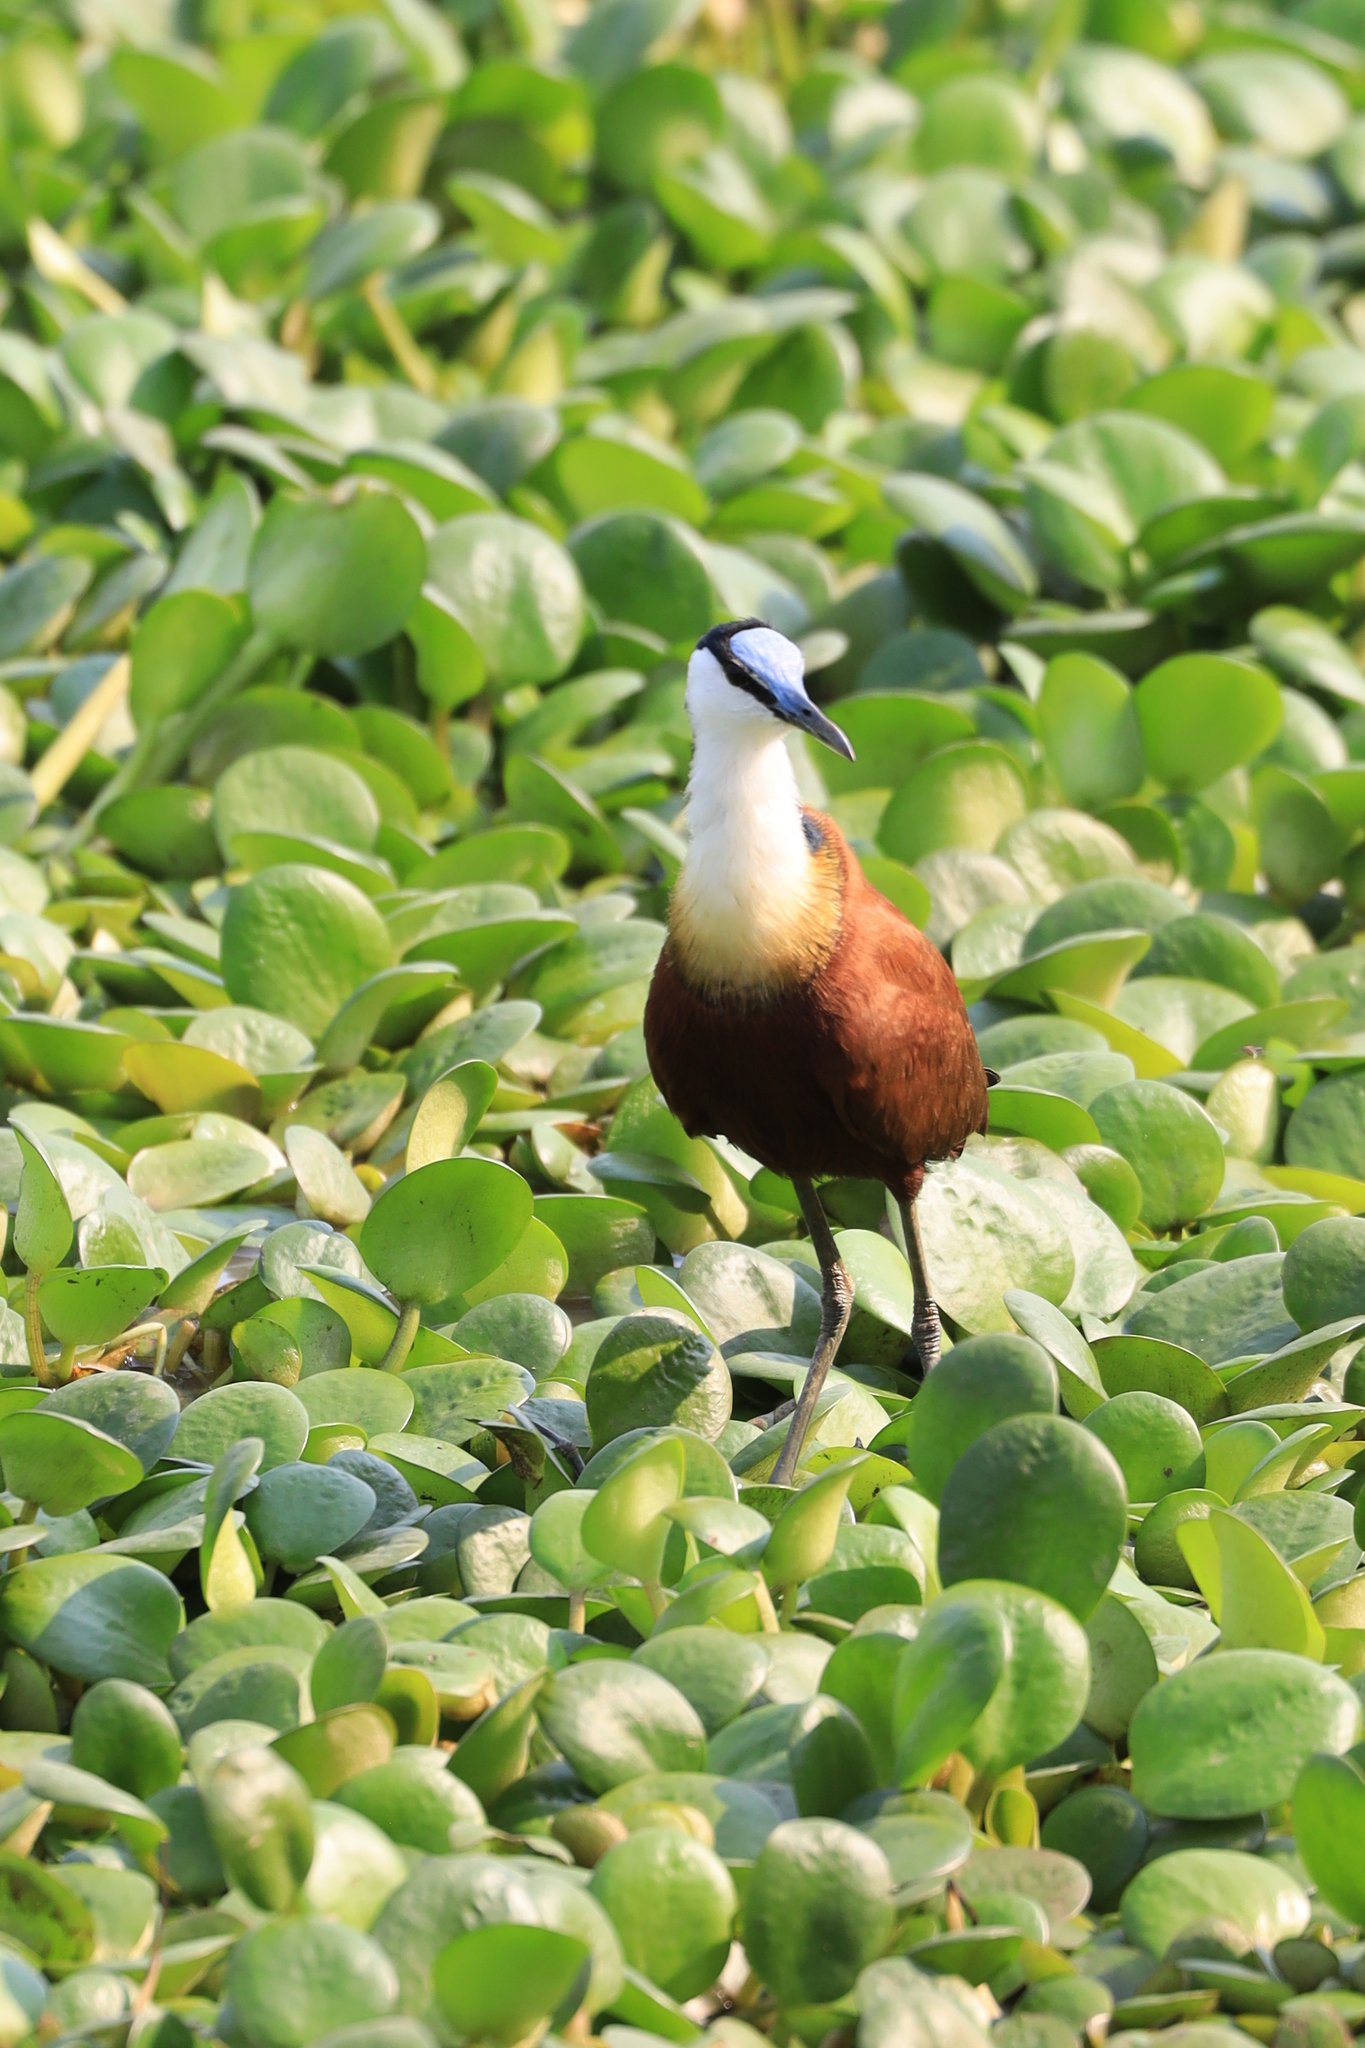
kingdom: Animalia
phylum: Chordata
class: Aves
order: Charadriiformes
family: Jacanidae
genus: Actophilornis
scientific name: Actophilornis africanus
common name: African jacana
